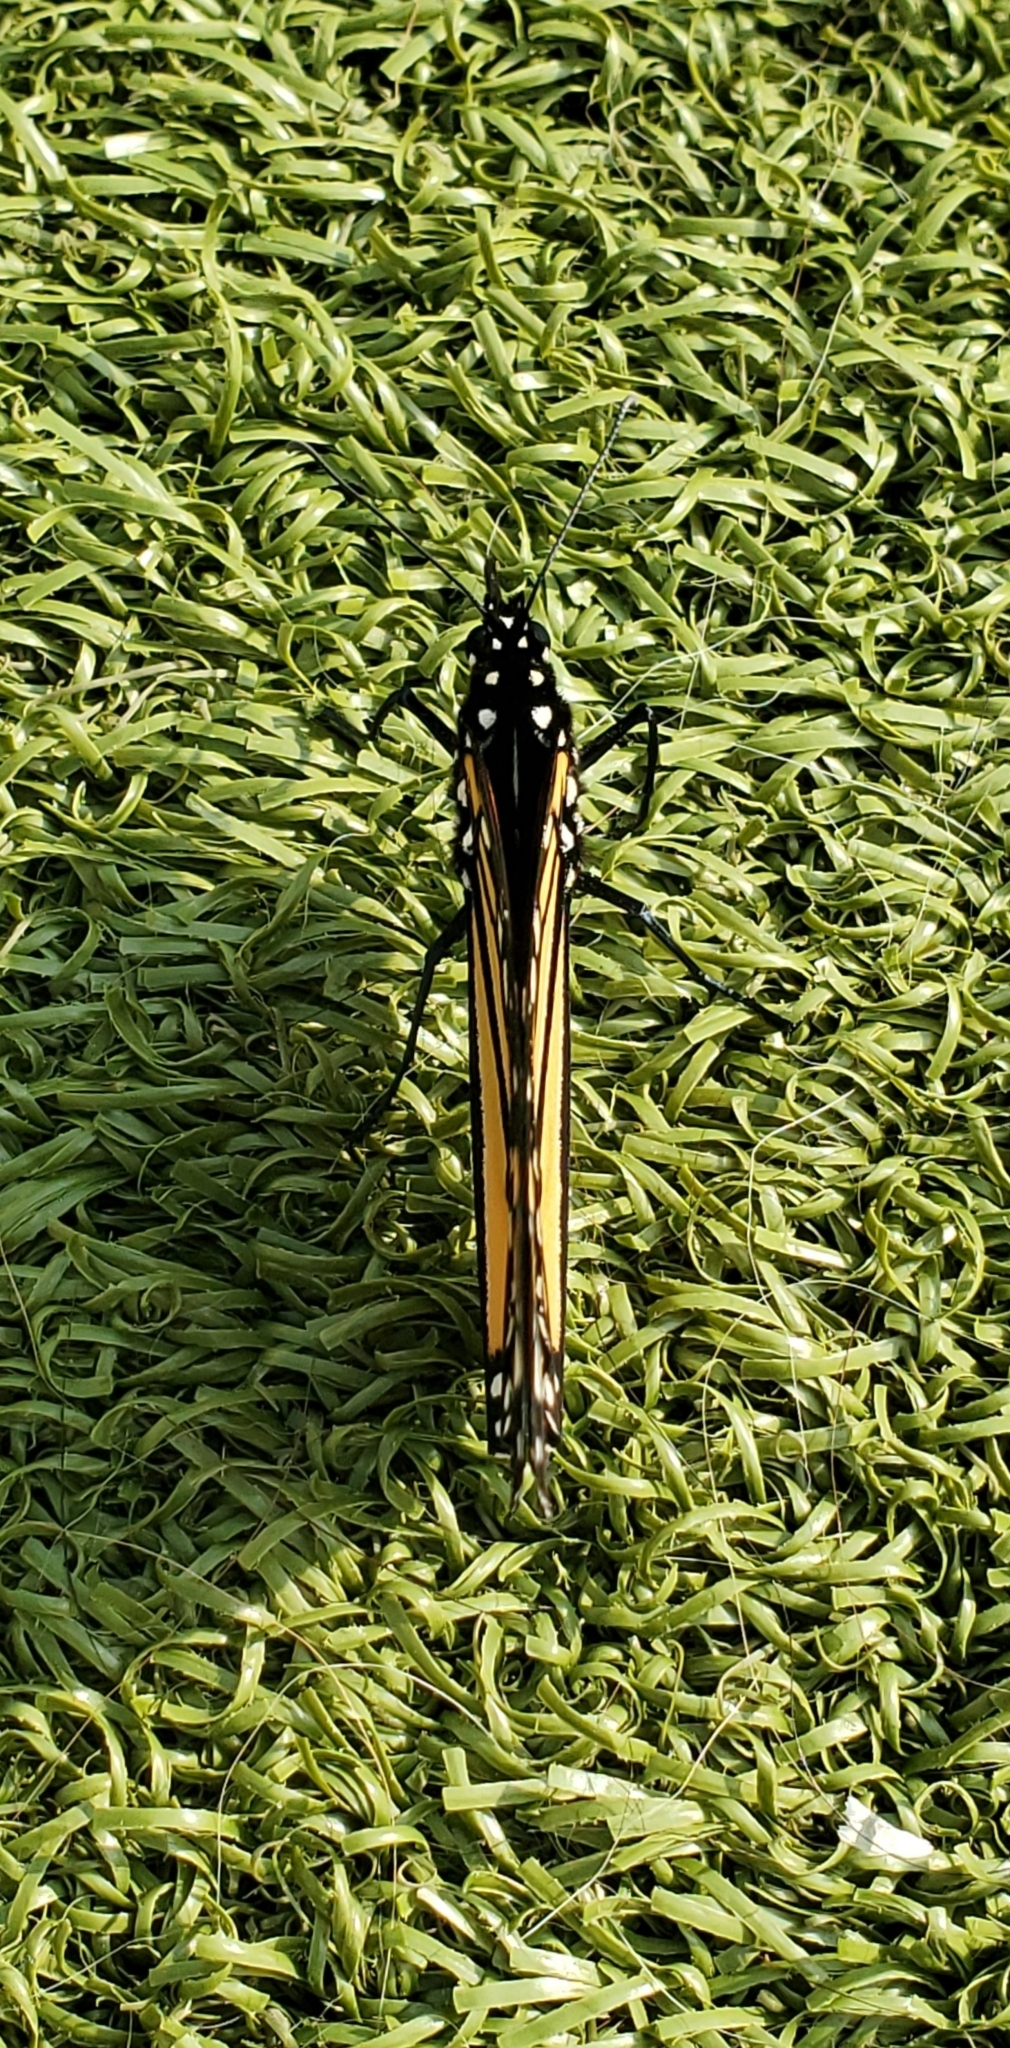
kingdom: Animalia
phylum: Arthropoda
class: Insecta
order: Lepidoptera
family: Nymphalidae
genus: Danaus
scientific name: Danaus plexippus
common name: Monarch
